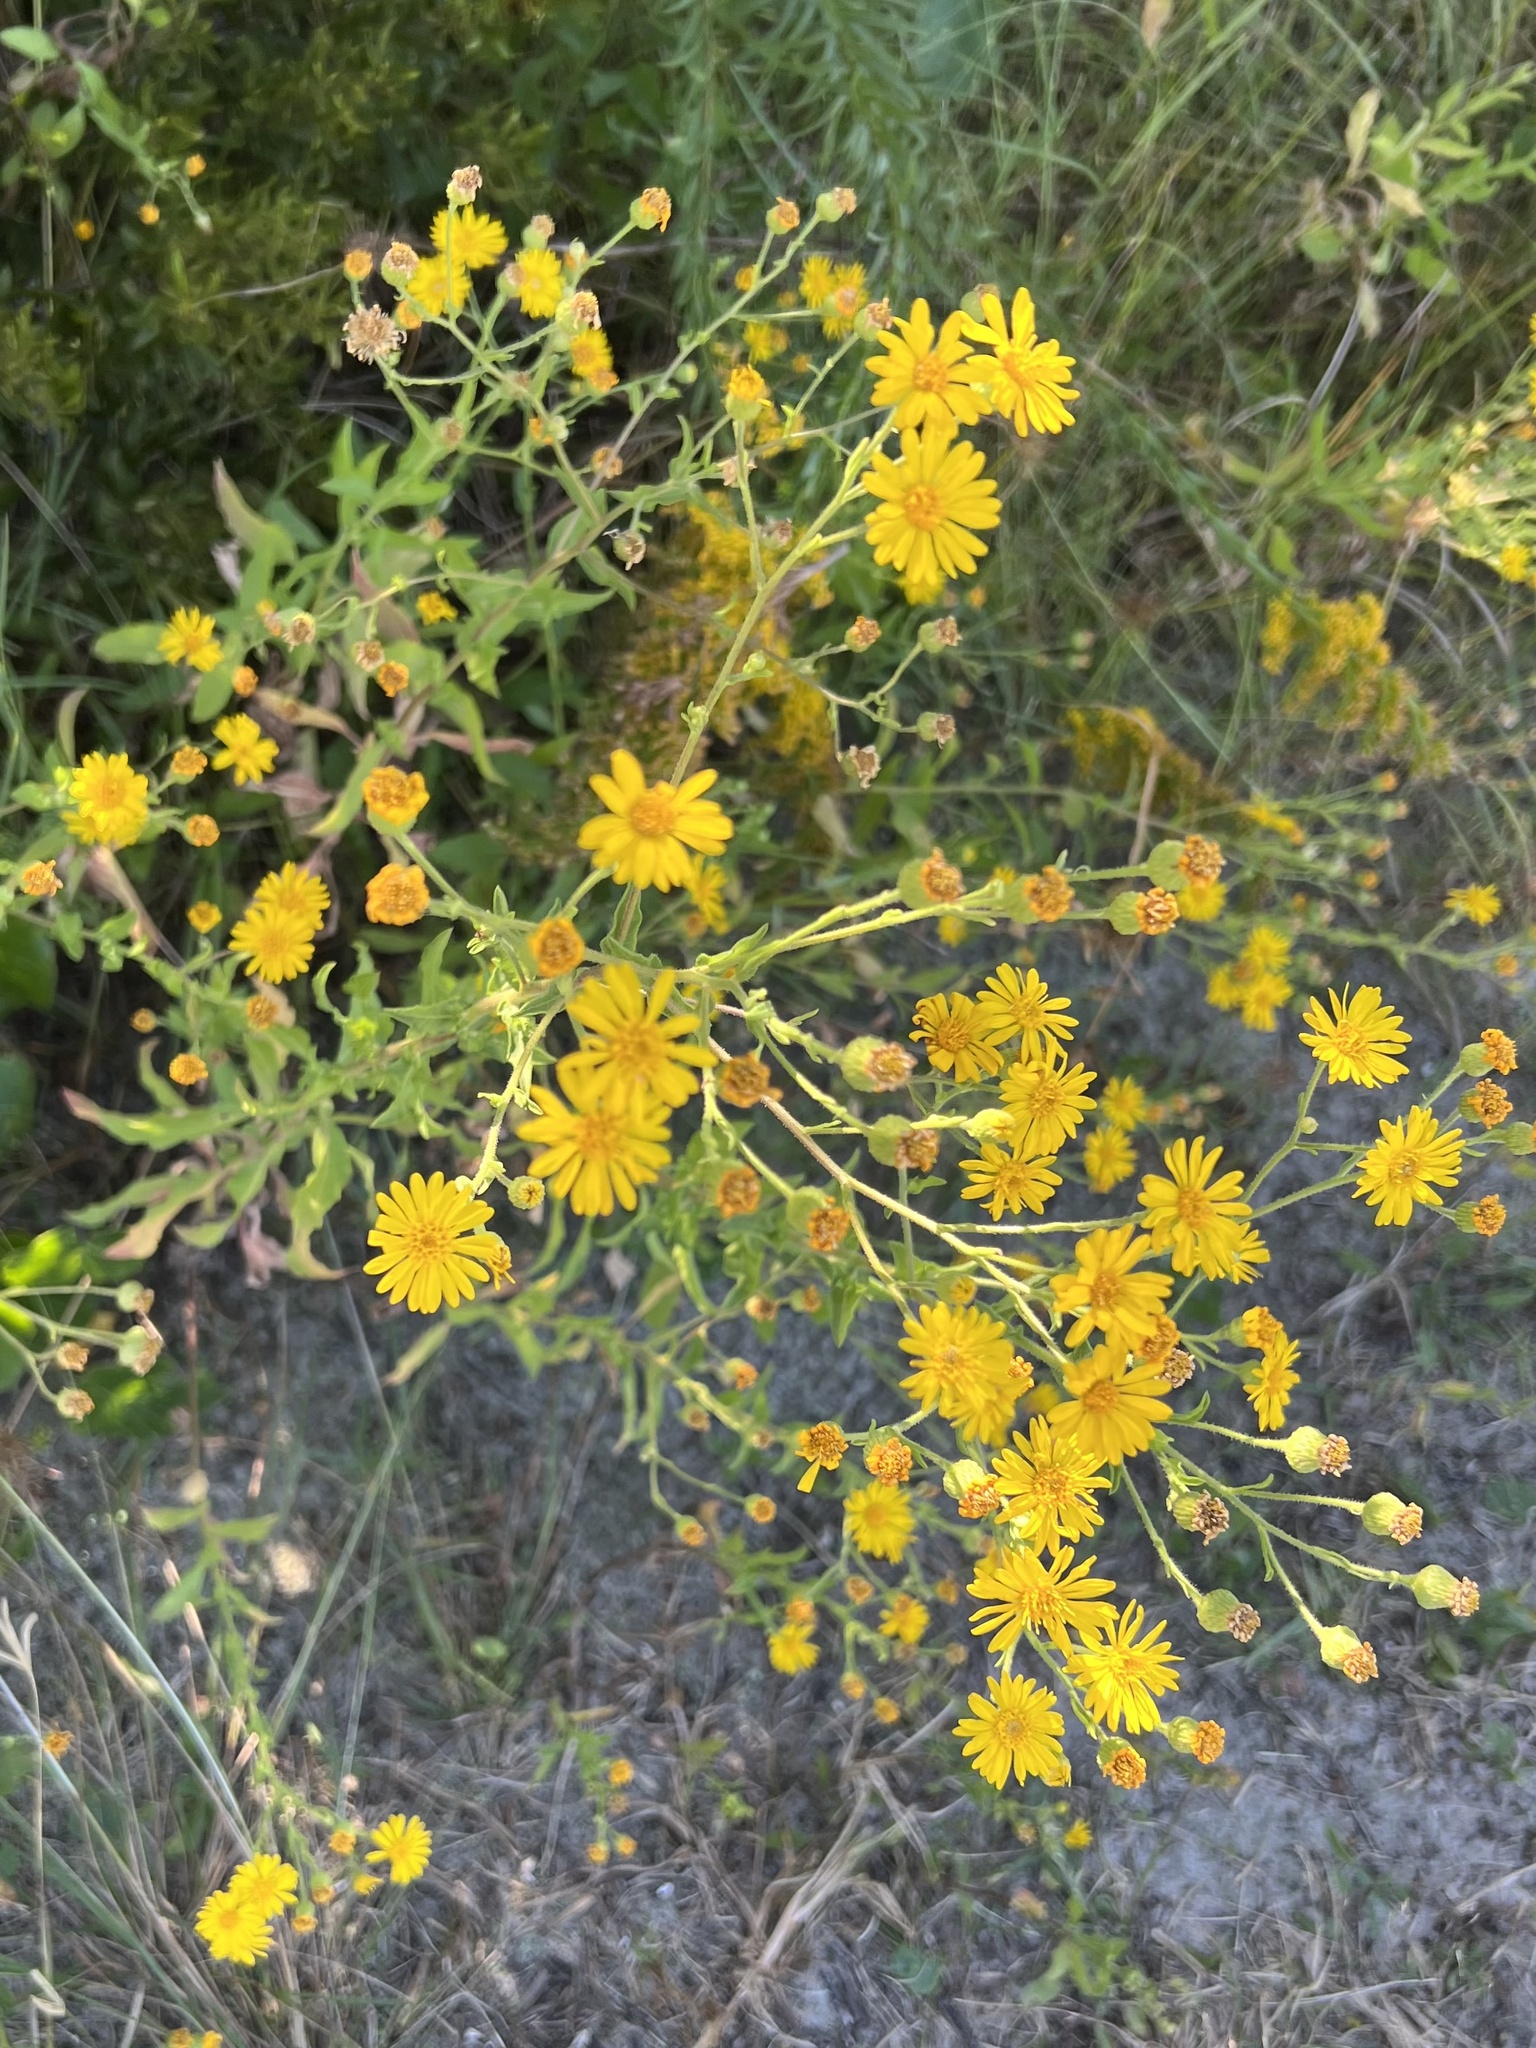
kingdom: Plantae
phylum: Tracheophyta
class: Magnoliopsida
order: Asterales
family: Asteraceae
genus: Heterotheca
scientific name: Heterotheca subaxillaris
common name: Camphorweed
